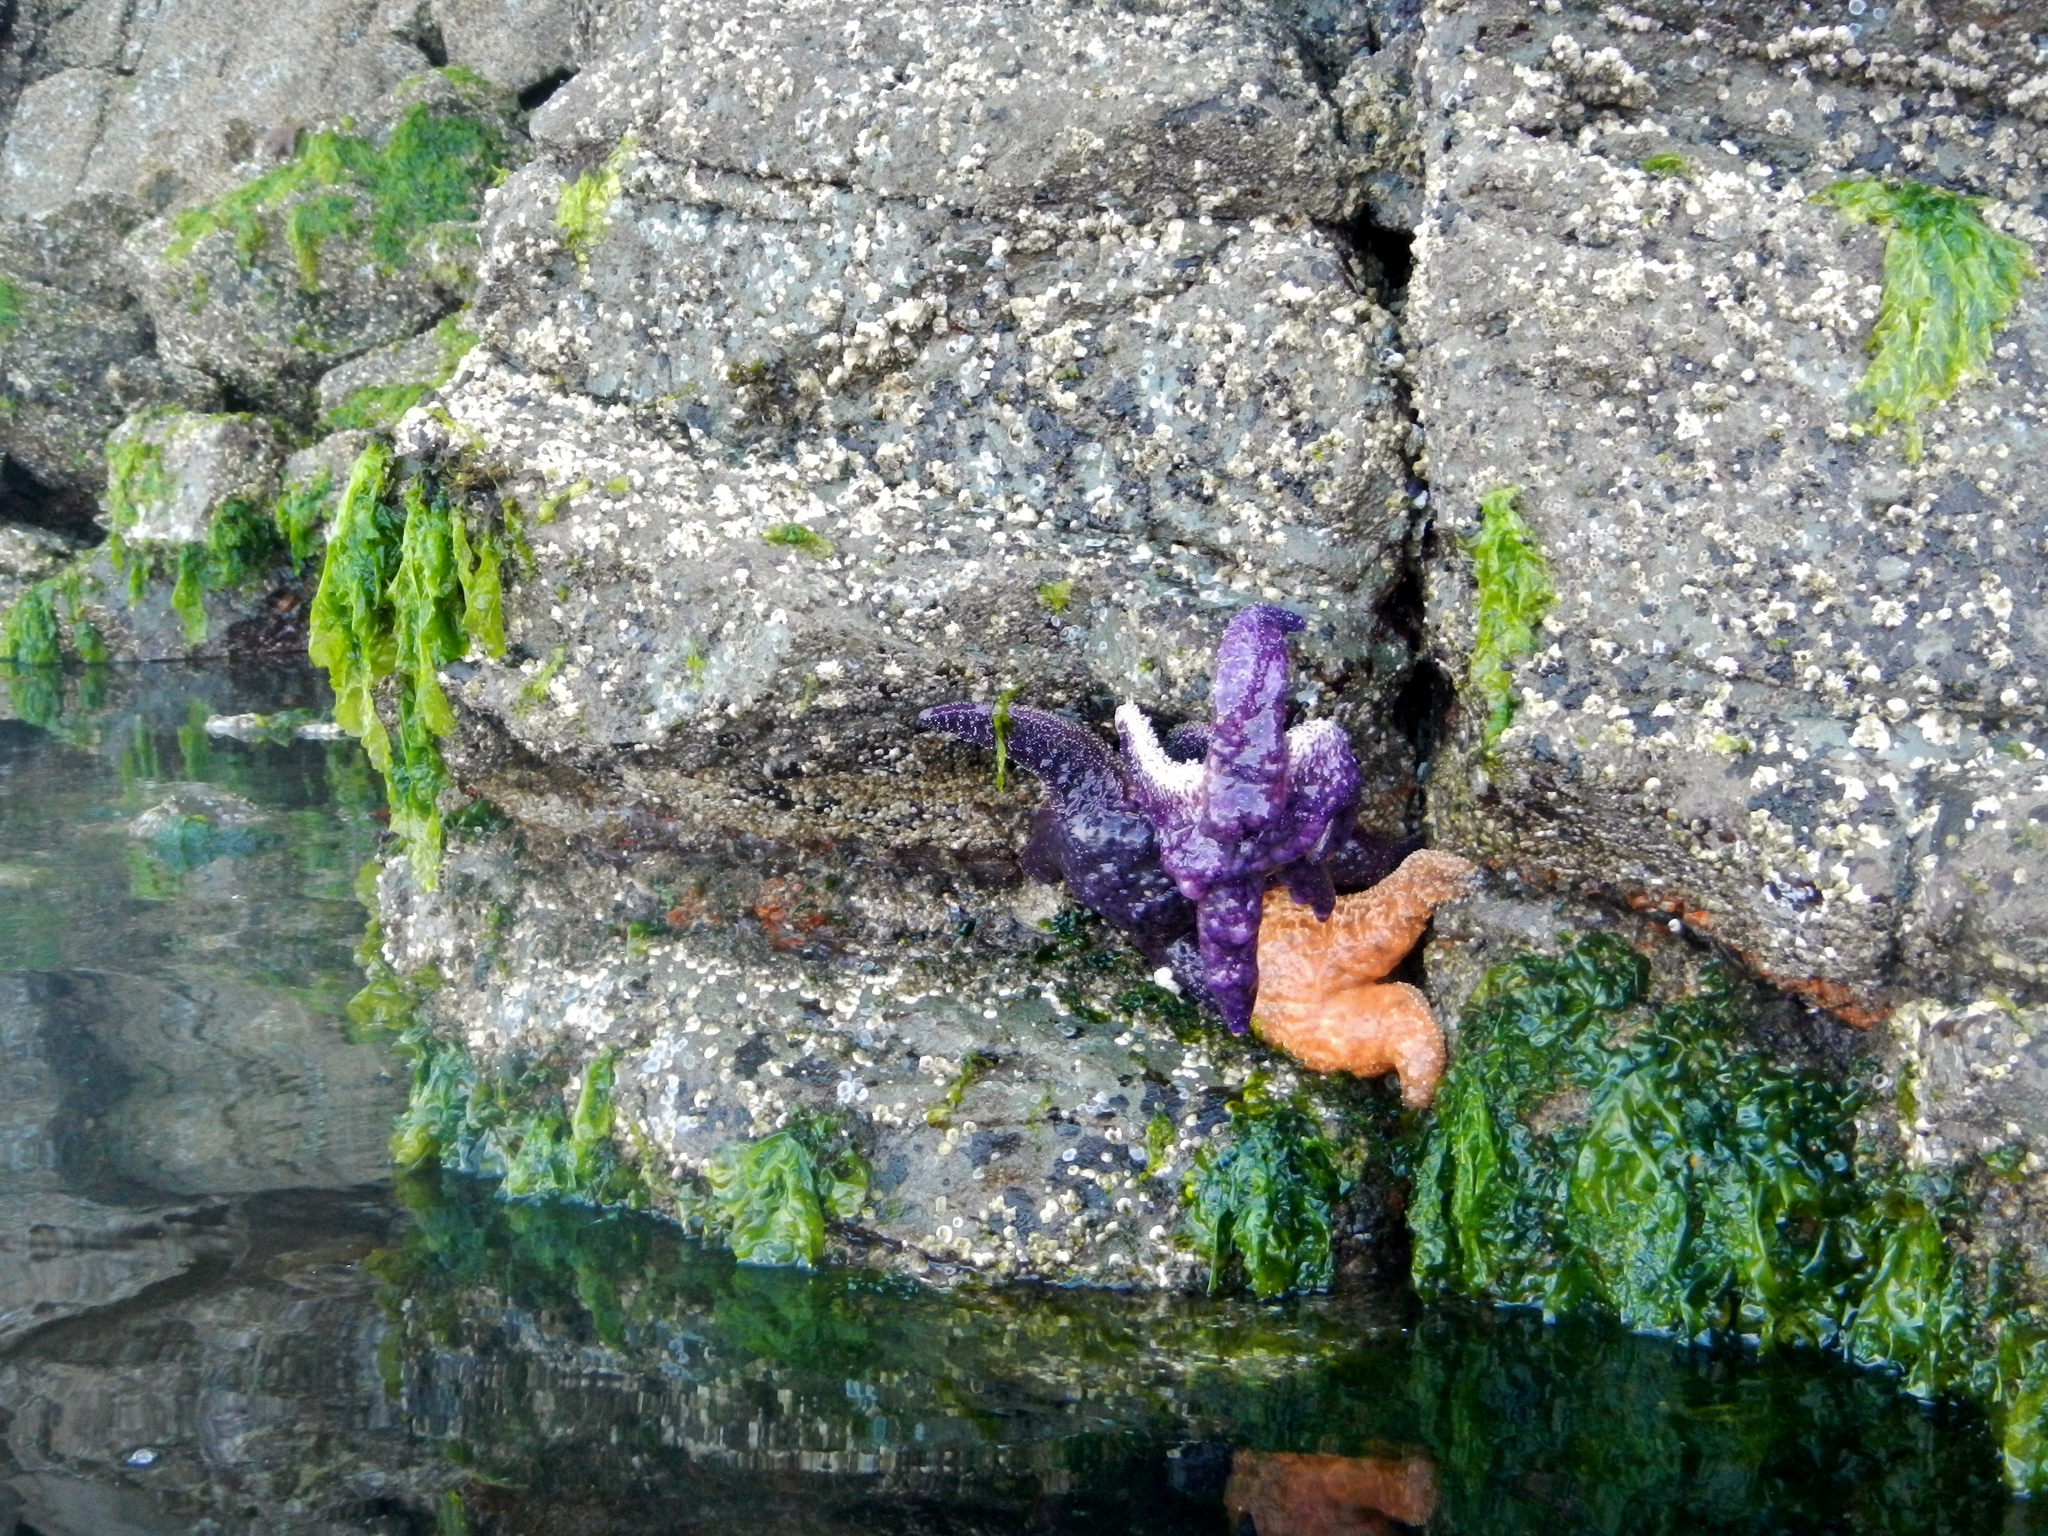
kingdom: Animalia
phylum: Echinodermata
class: Asteroidea
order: Forcipulatida
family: Asteriidae
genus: Pisaster
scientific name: Pisaster ochraceus
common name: Ochre stars
